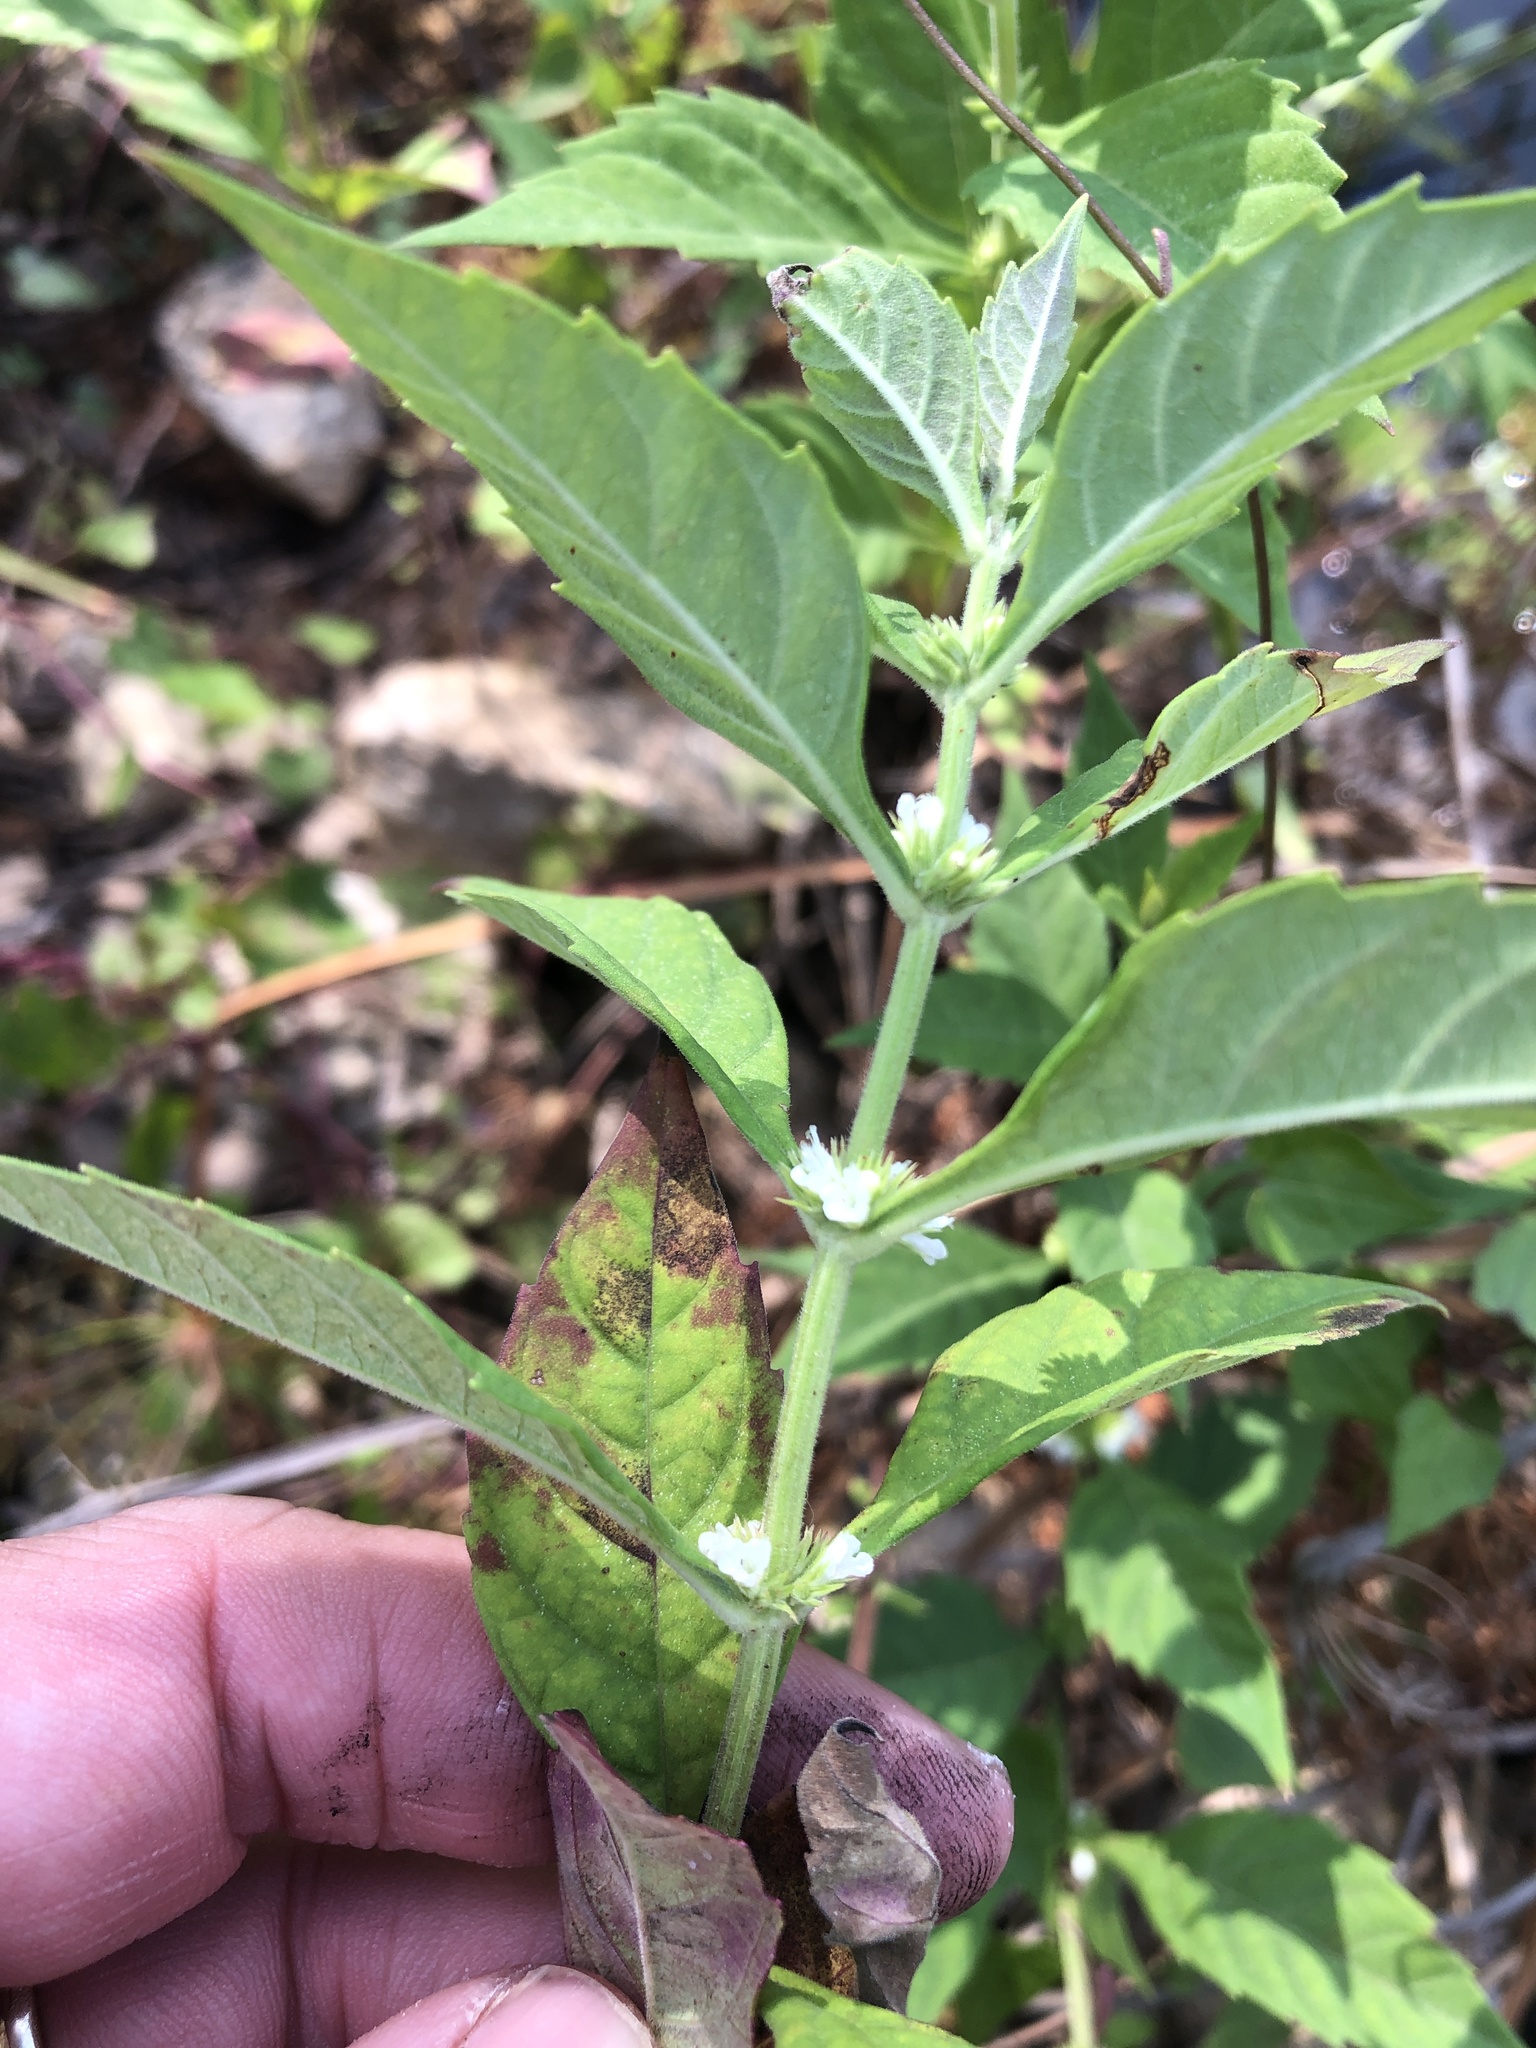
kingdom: Plantae
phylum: Tracheophyta
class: Magnoliopsida
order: Lamiales
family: Lamiaceae
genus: Lycopus
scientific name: Lycopus rubellus
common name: Stalked bugleweed
